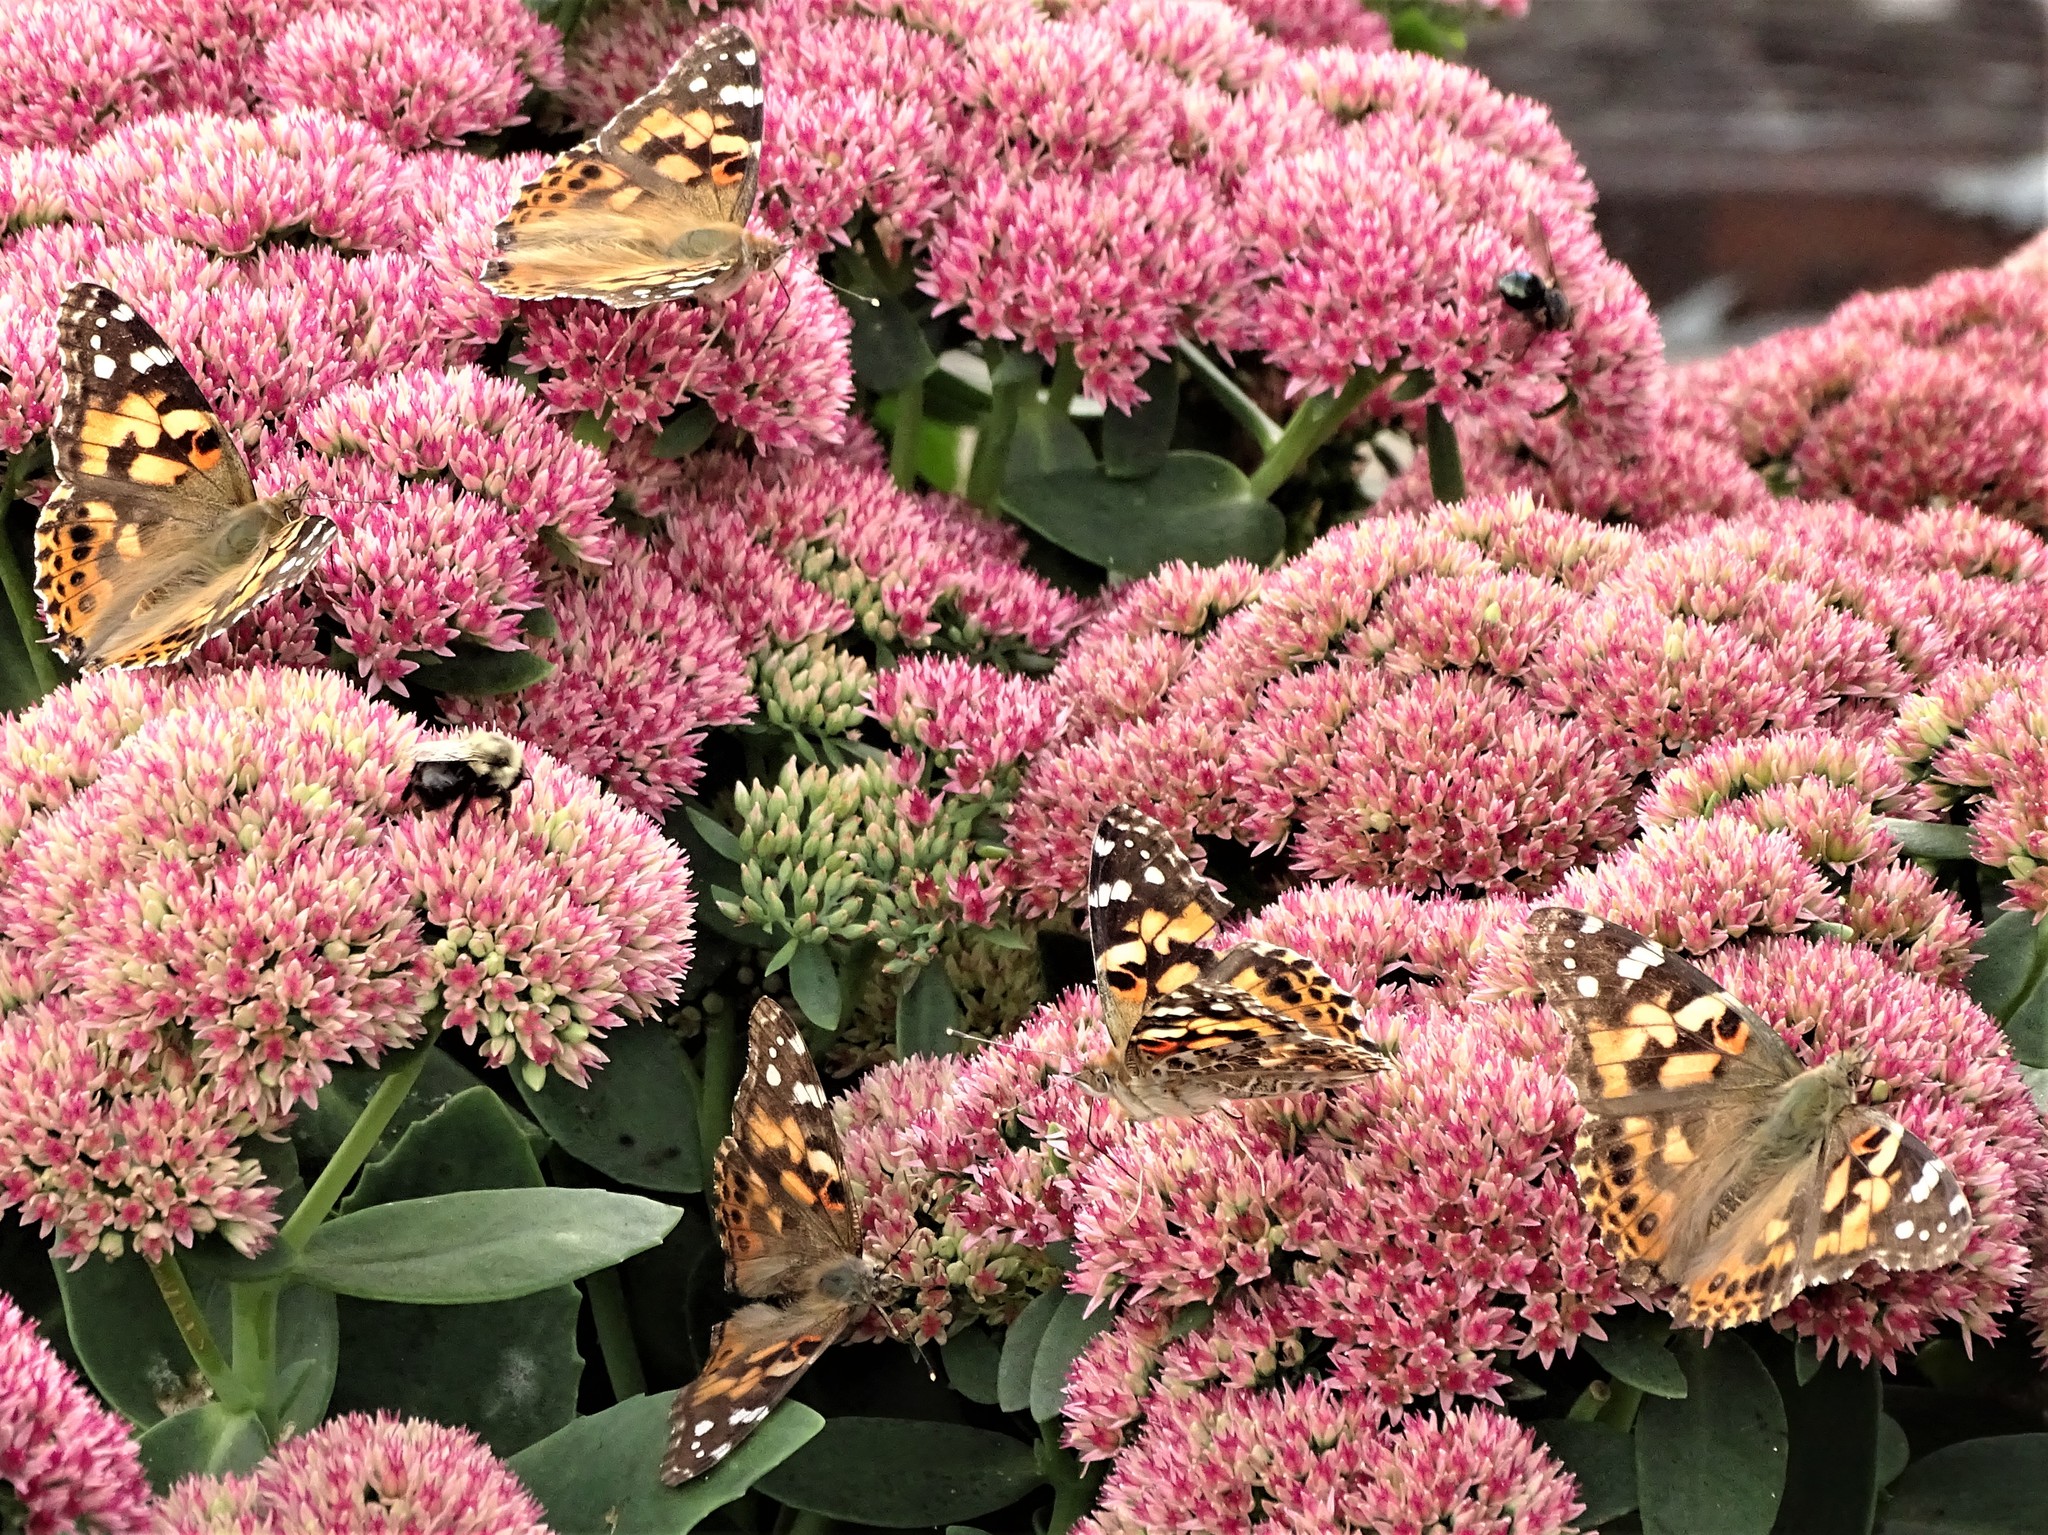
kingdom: Animalia
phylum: Arthropoda
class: Insecta
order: Lepidoptera
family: Nymphalidae
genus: Vanessa
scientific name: Vanessa cardui
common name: Painted lady
